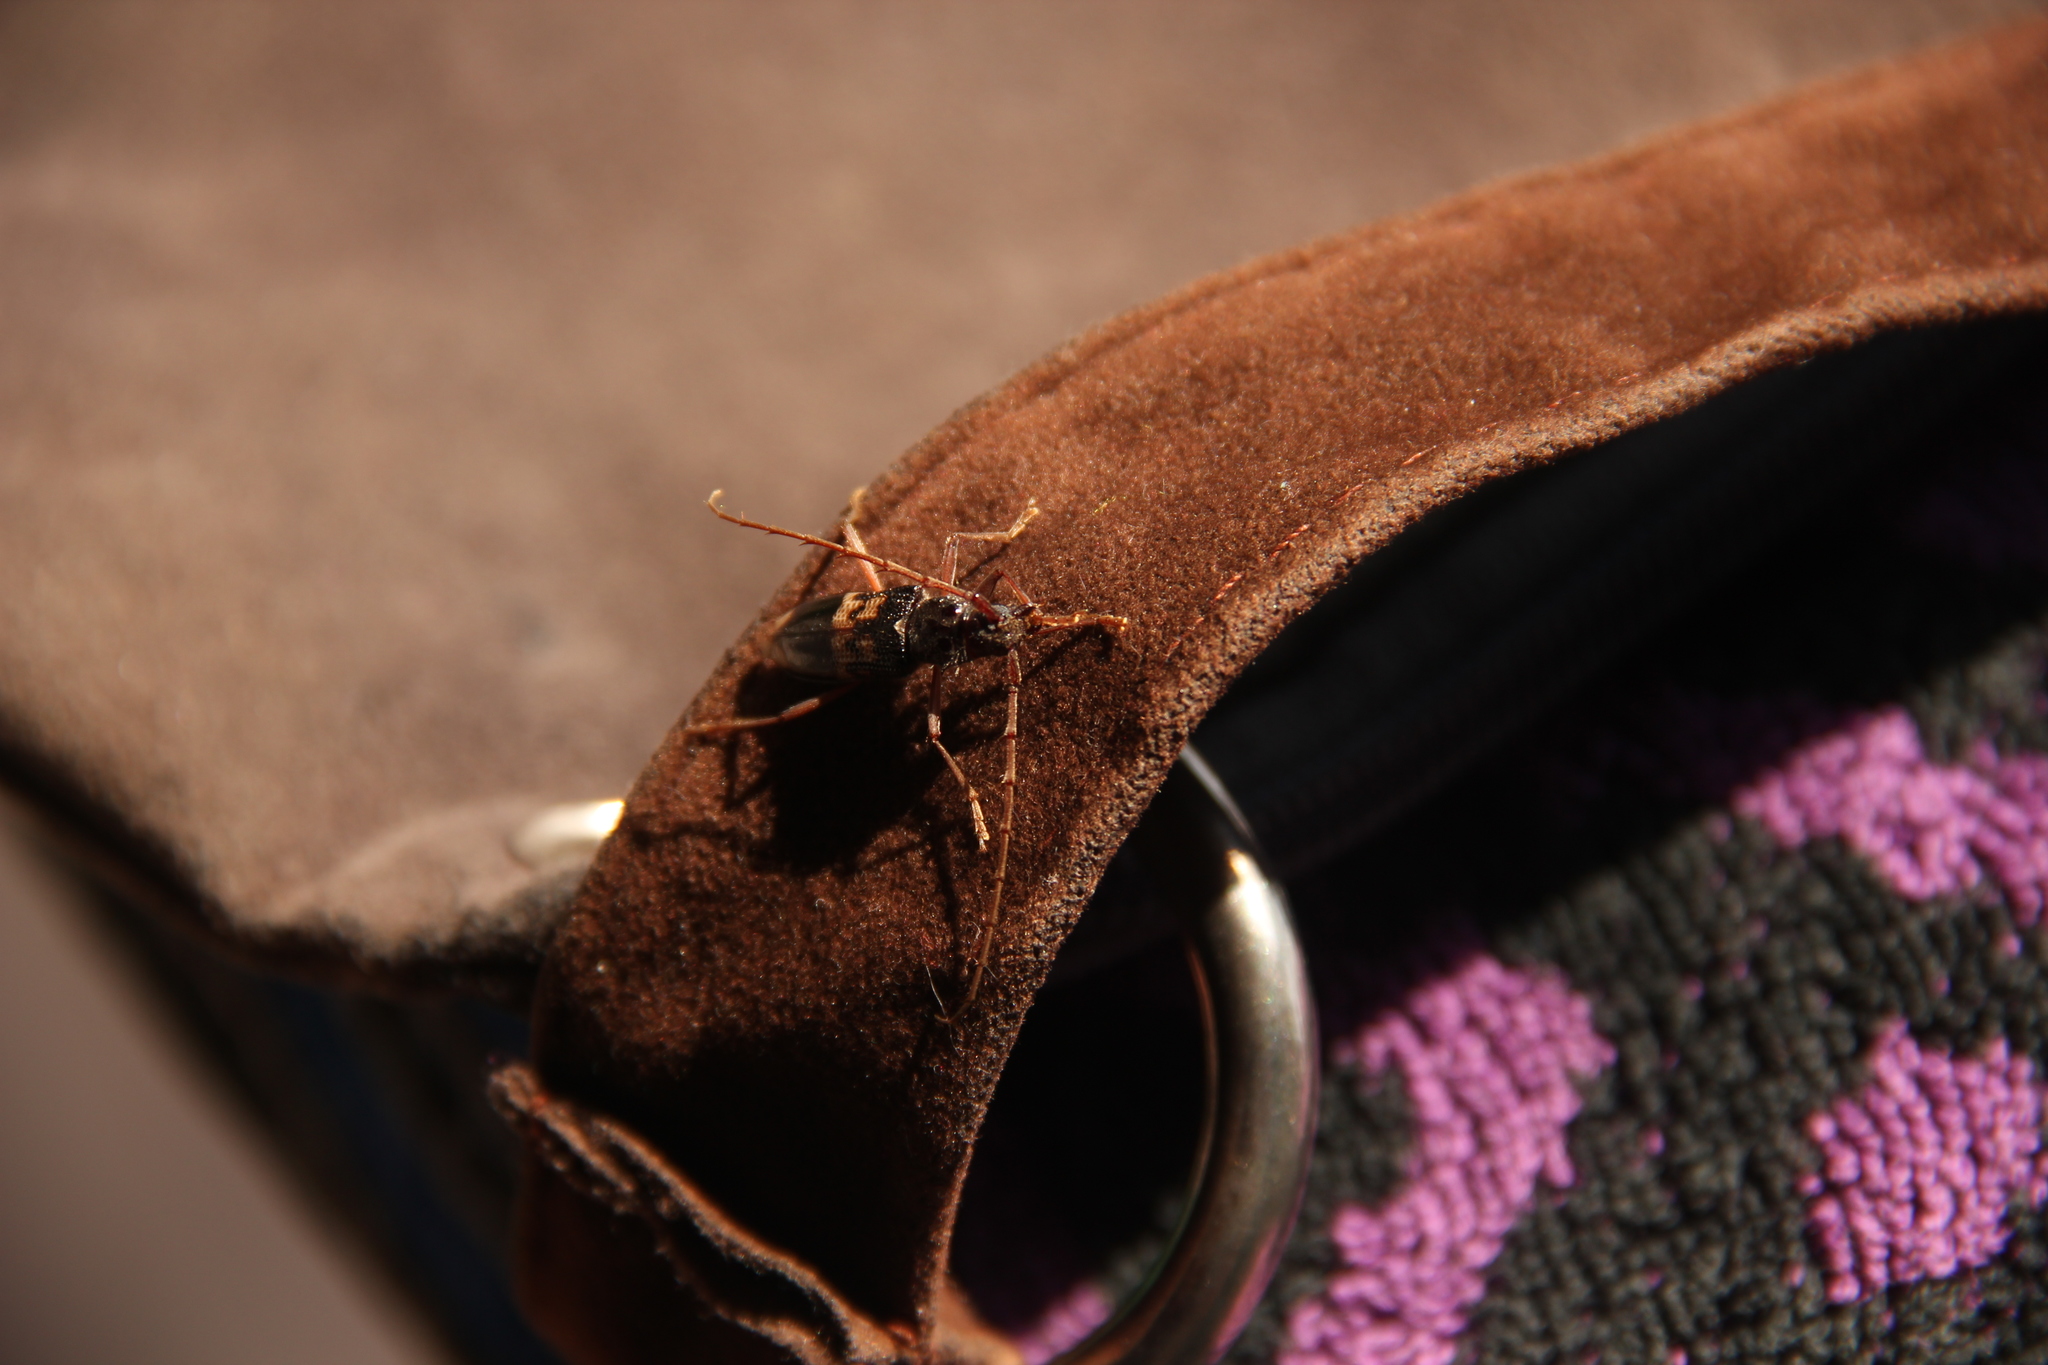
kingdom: Animalia
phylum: Arthropoda
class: Insecta
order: Coleoptera
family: Cerambycidae
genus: Phoracantha
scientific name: Phoracantha semipunctata
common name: Eucalyptus longhorn borer
